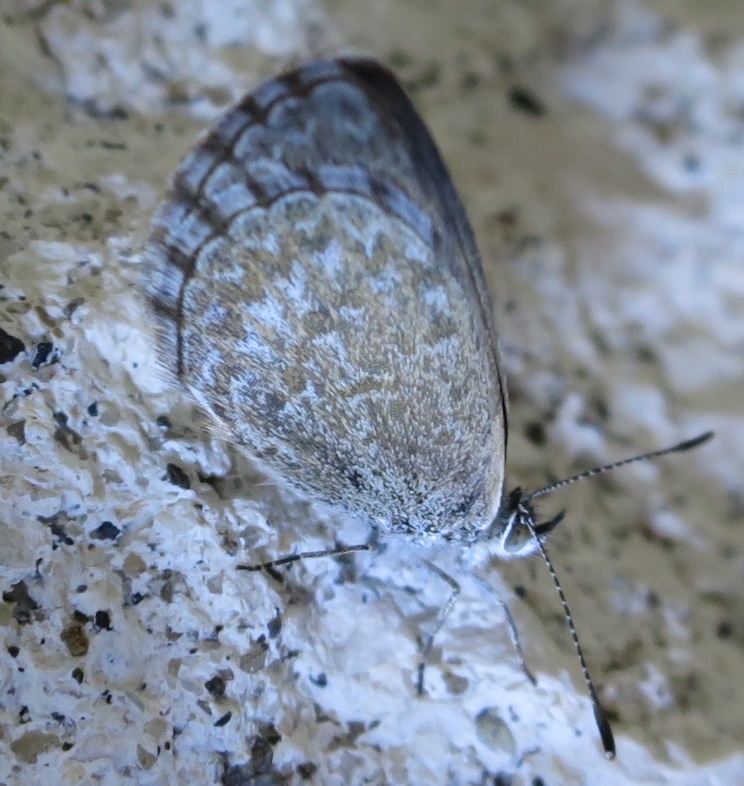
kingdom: Animalia
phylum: Arthropoda
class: Insecta
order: Lepidoptera
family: Lycaenidae
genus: Zizina
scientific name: Zizina labradus
